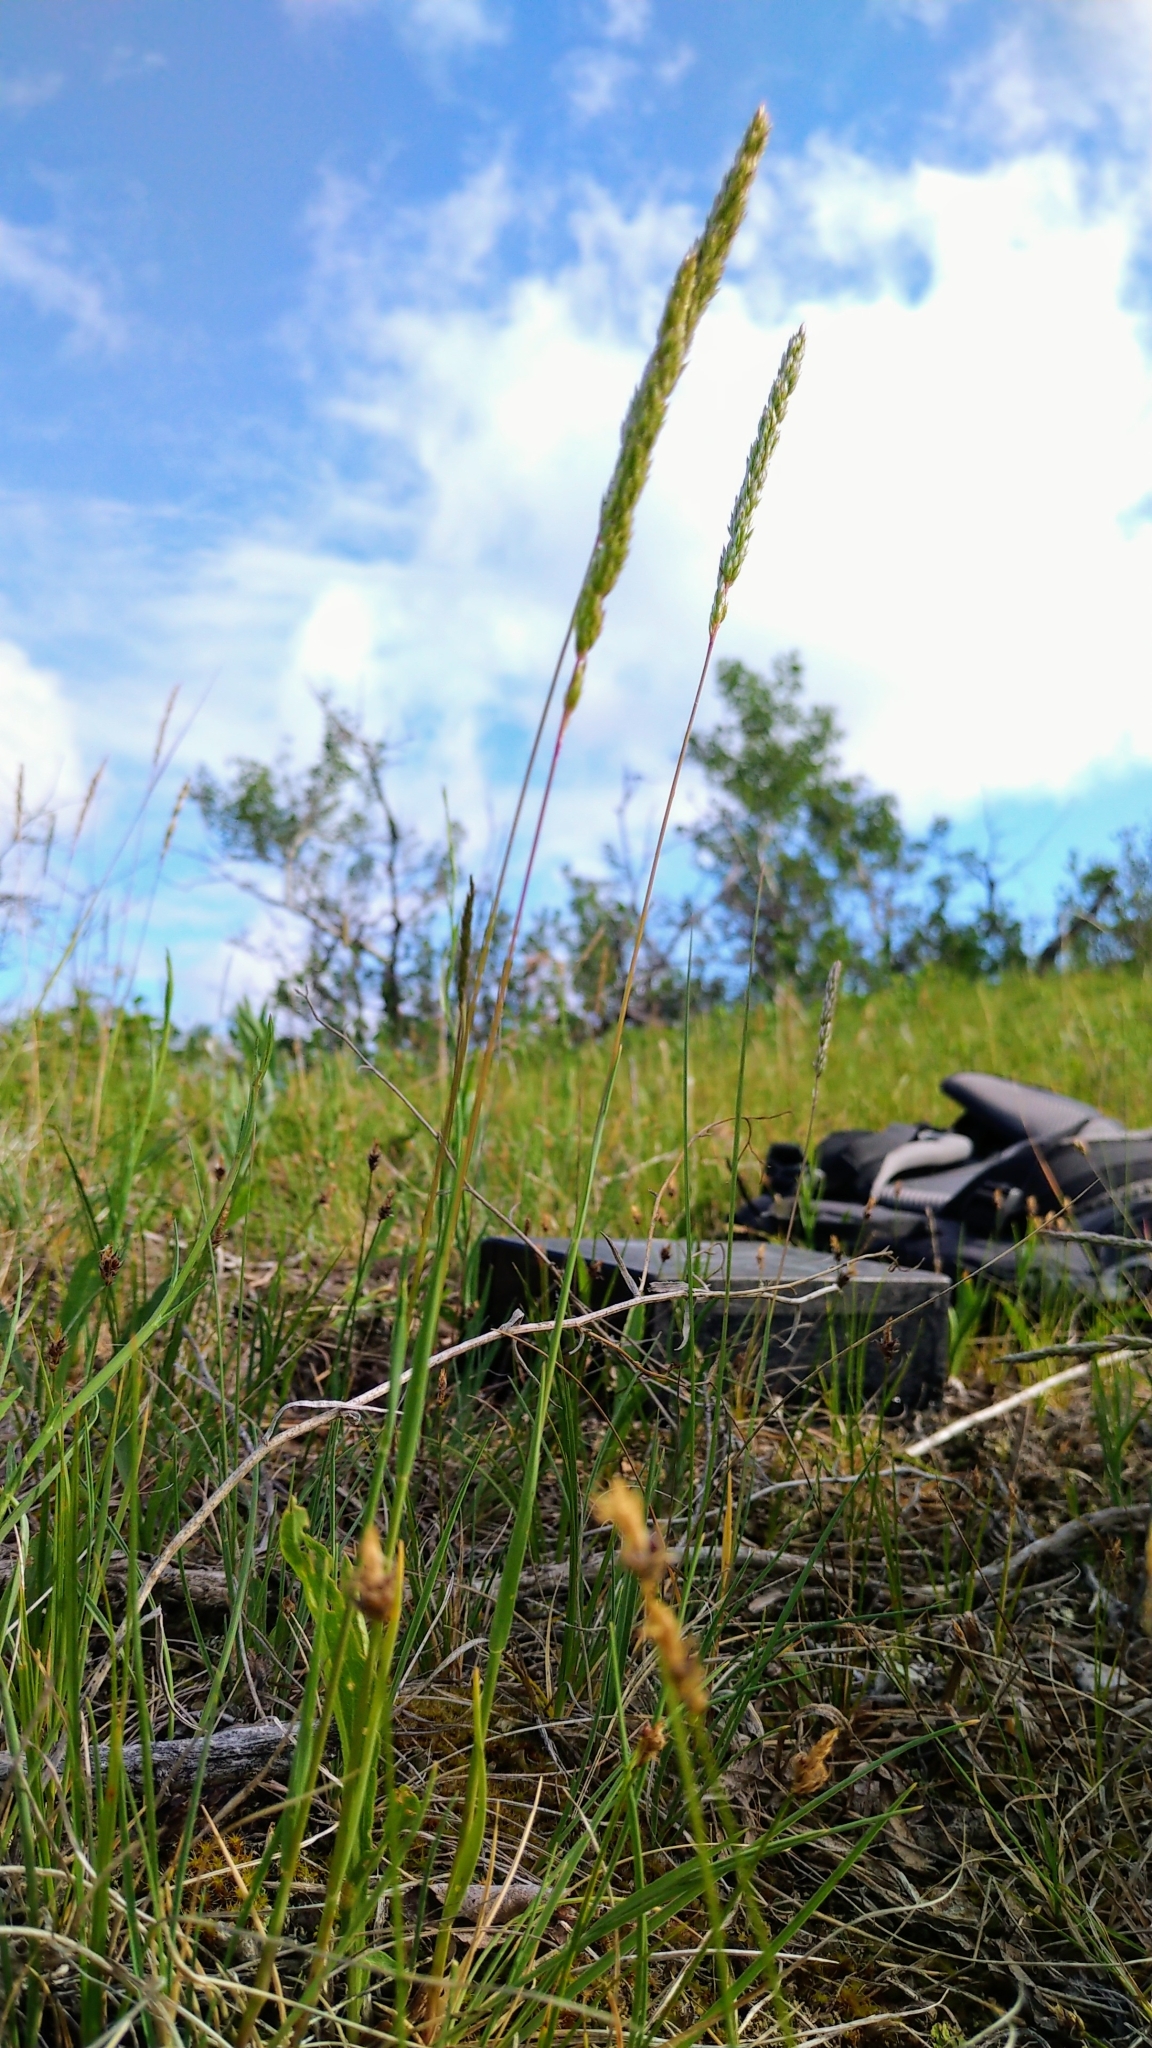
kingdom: Plantae
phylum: Tracheophyta
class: Liliopsida
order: Poales
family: Poaceae
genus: Koeleria
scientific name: Koeleria macrantha
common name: Crested hair-grass
